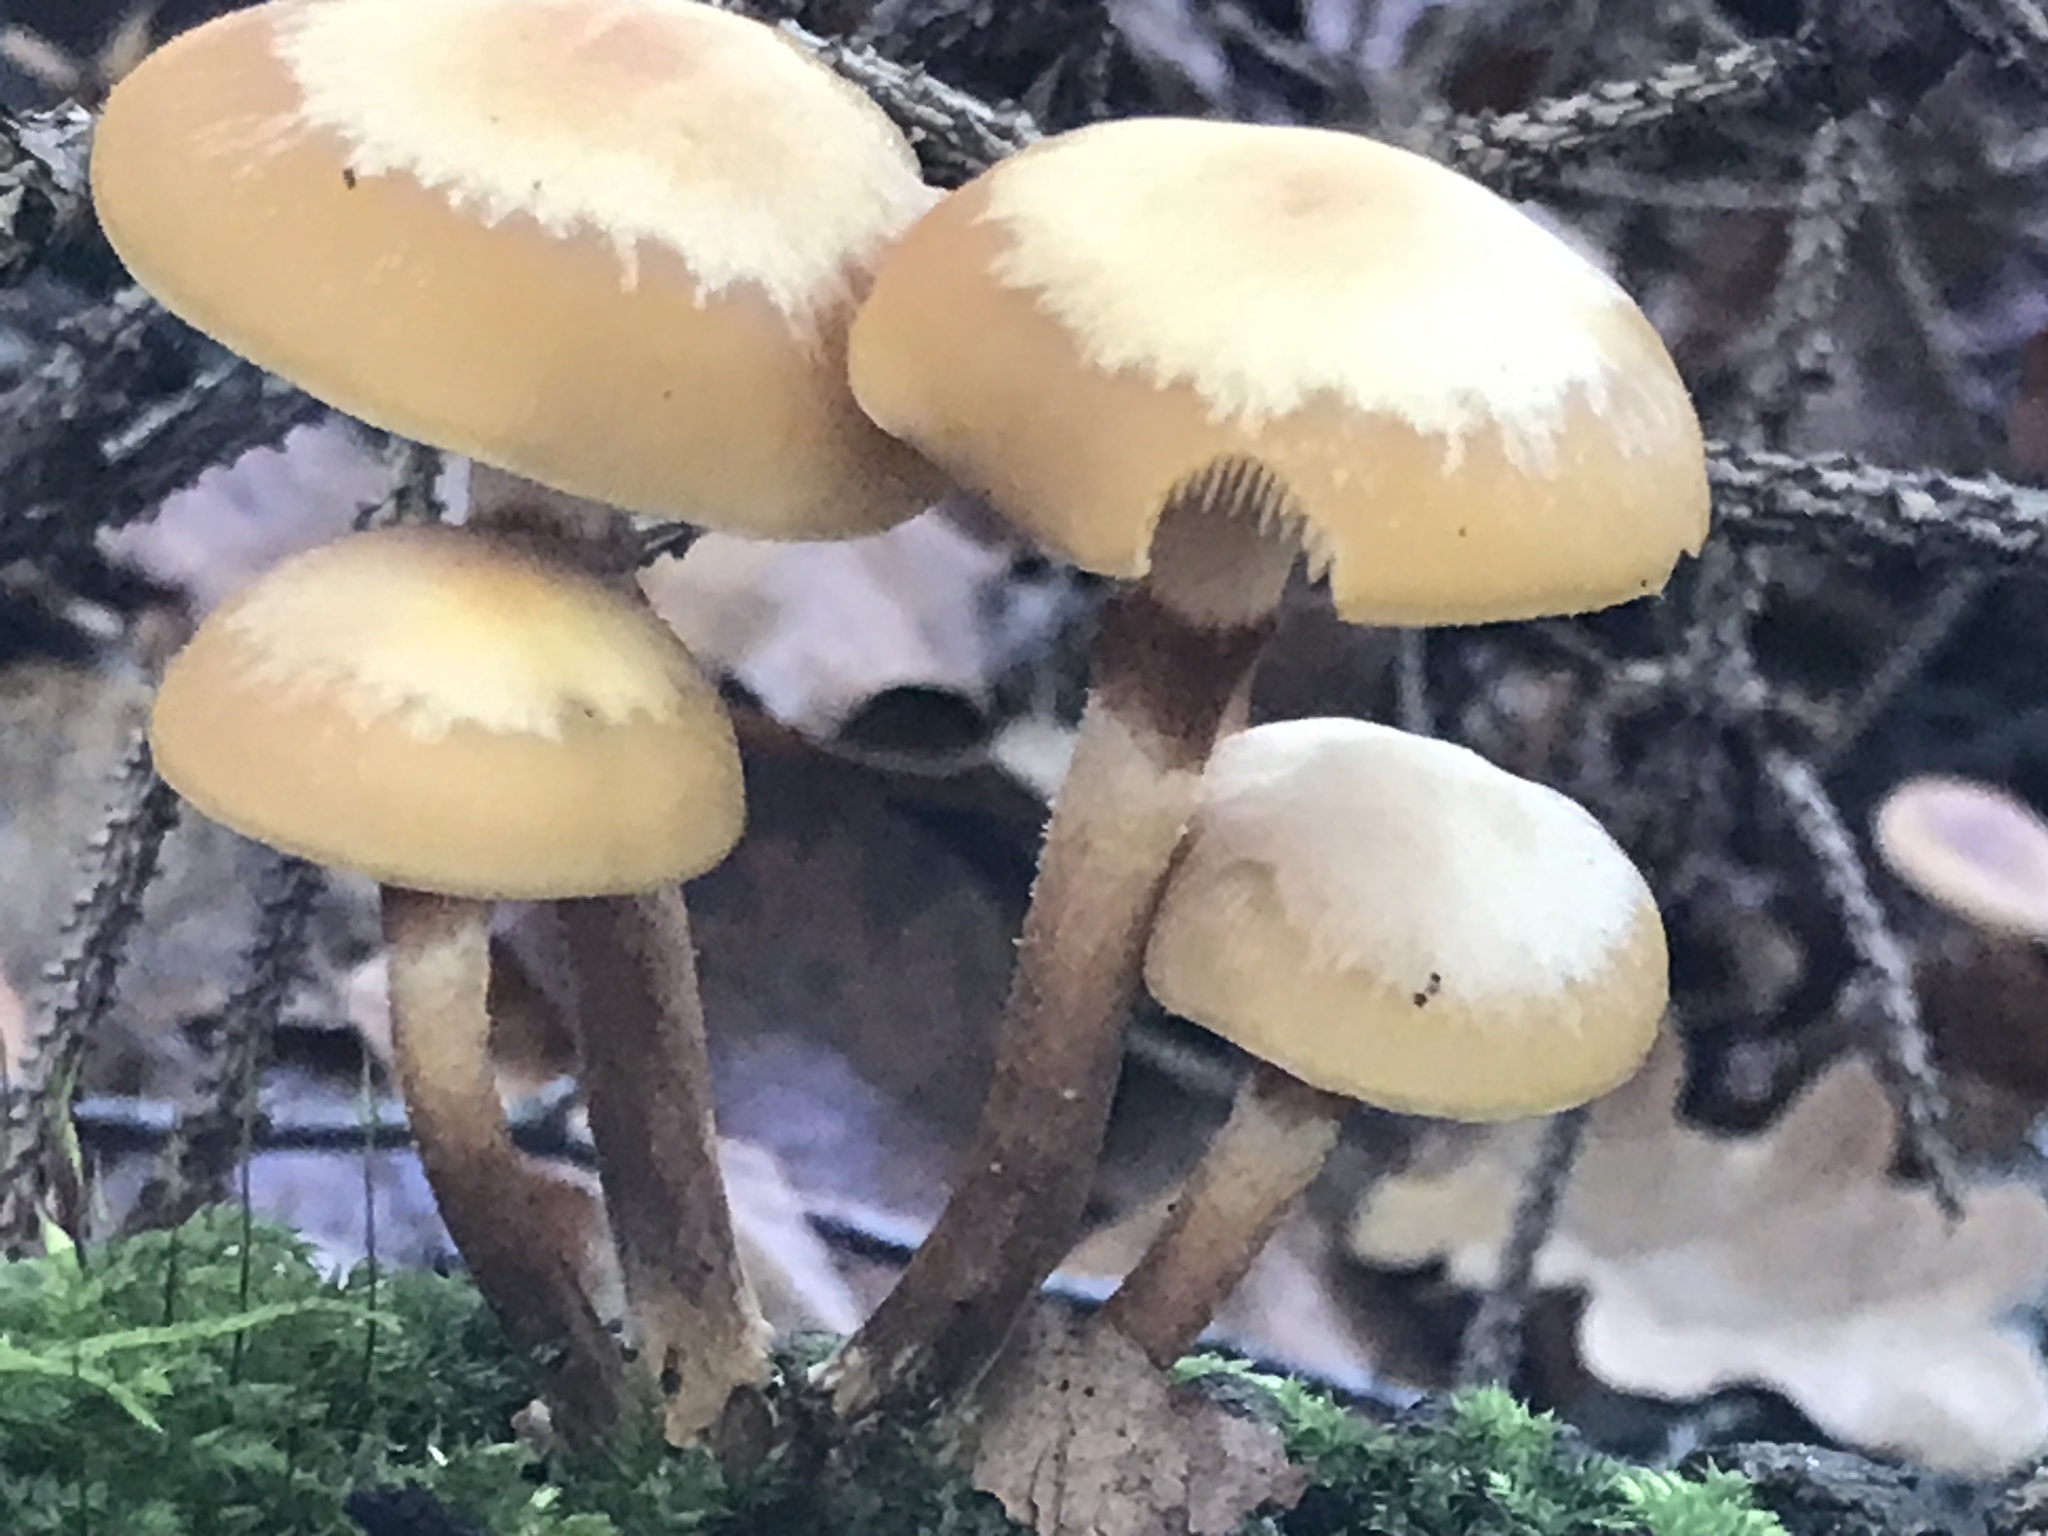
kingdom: Fungi
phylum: Basidiomycota
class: Agaricomycetes
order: Agaricales
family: Strophariaceae
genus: Kuehneromyces
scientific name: Kuehneromyces mutabilis
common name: Sheathed woodtuft
